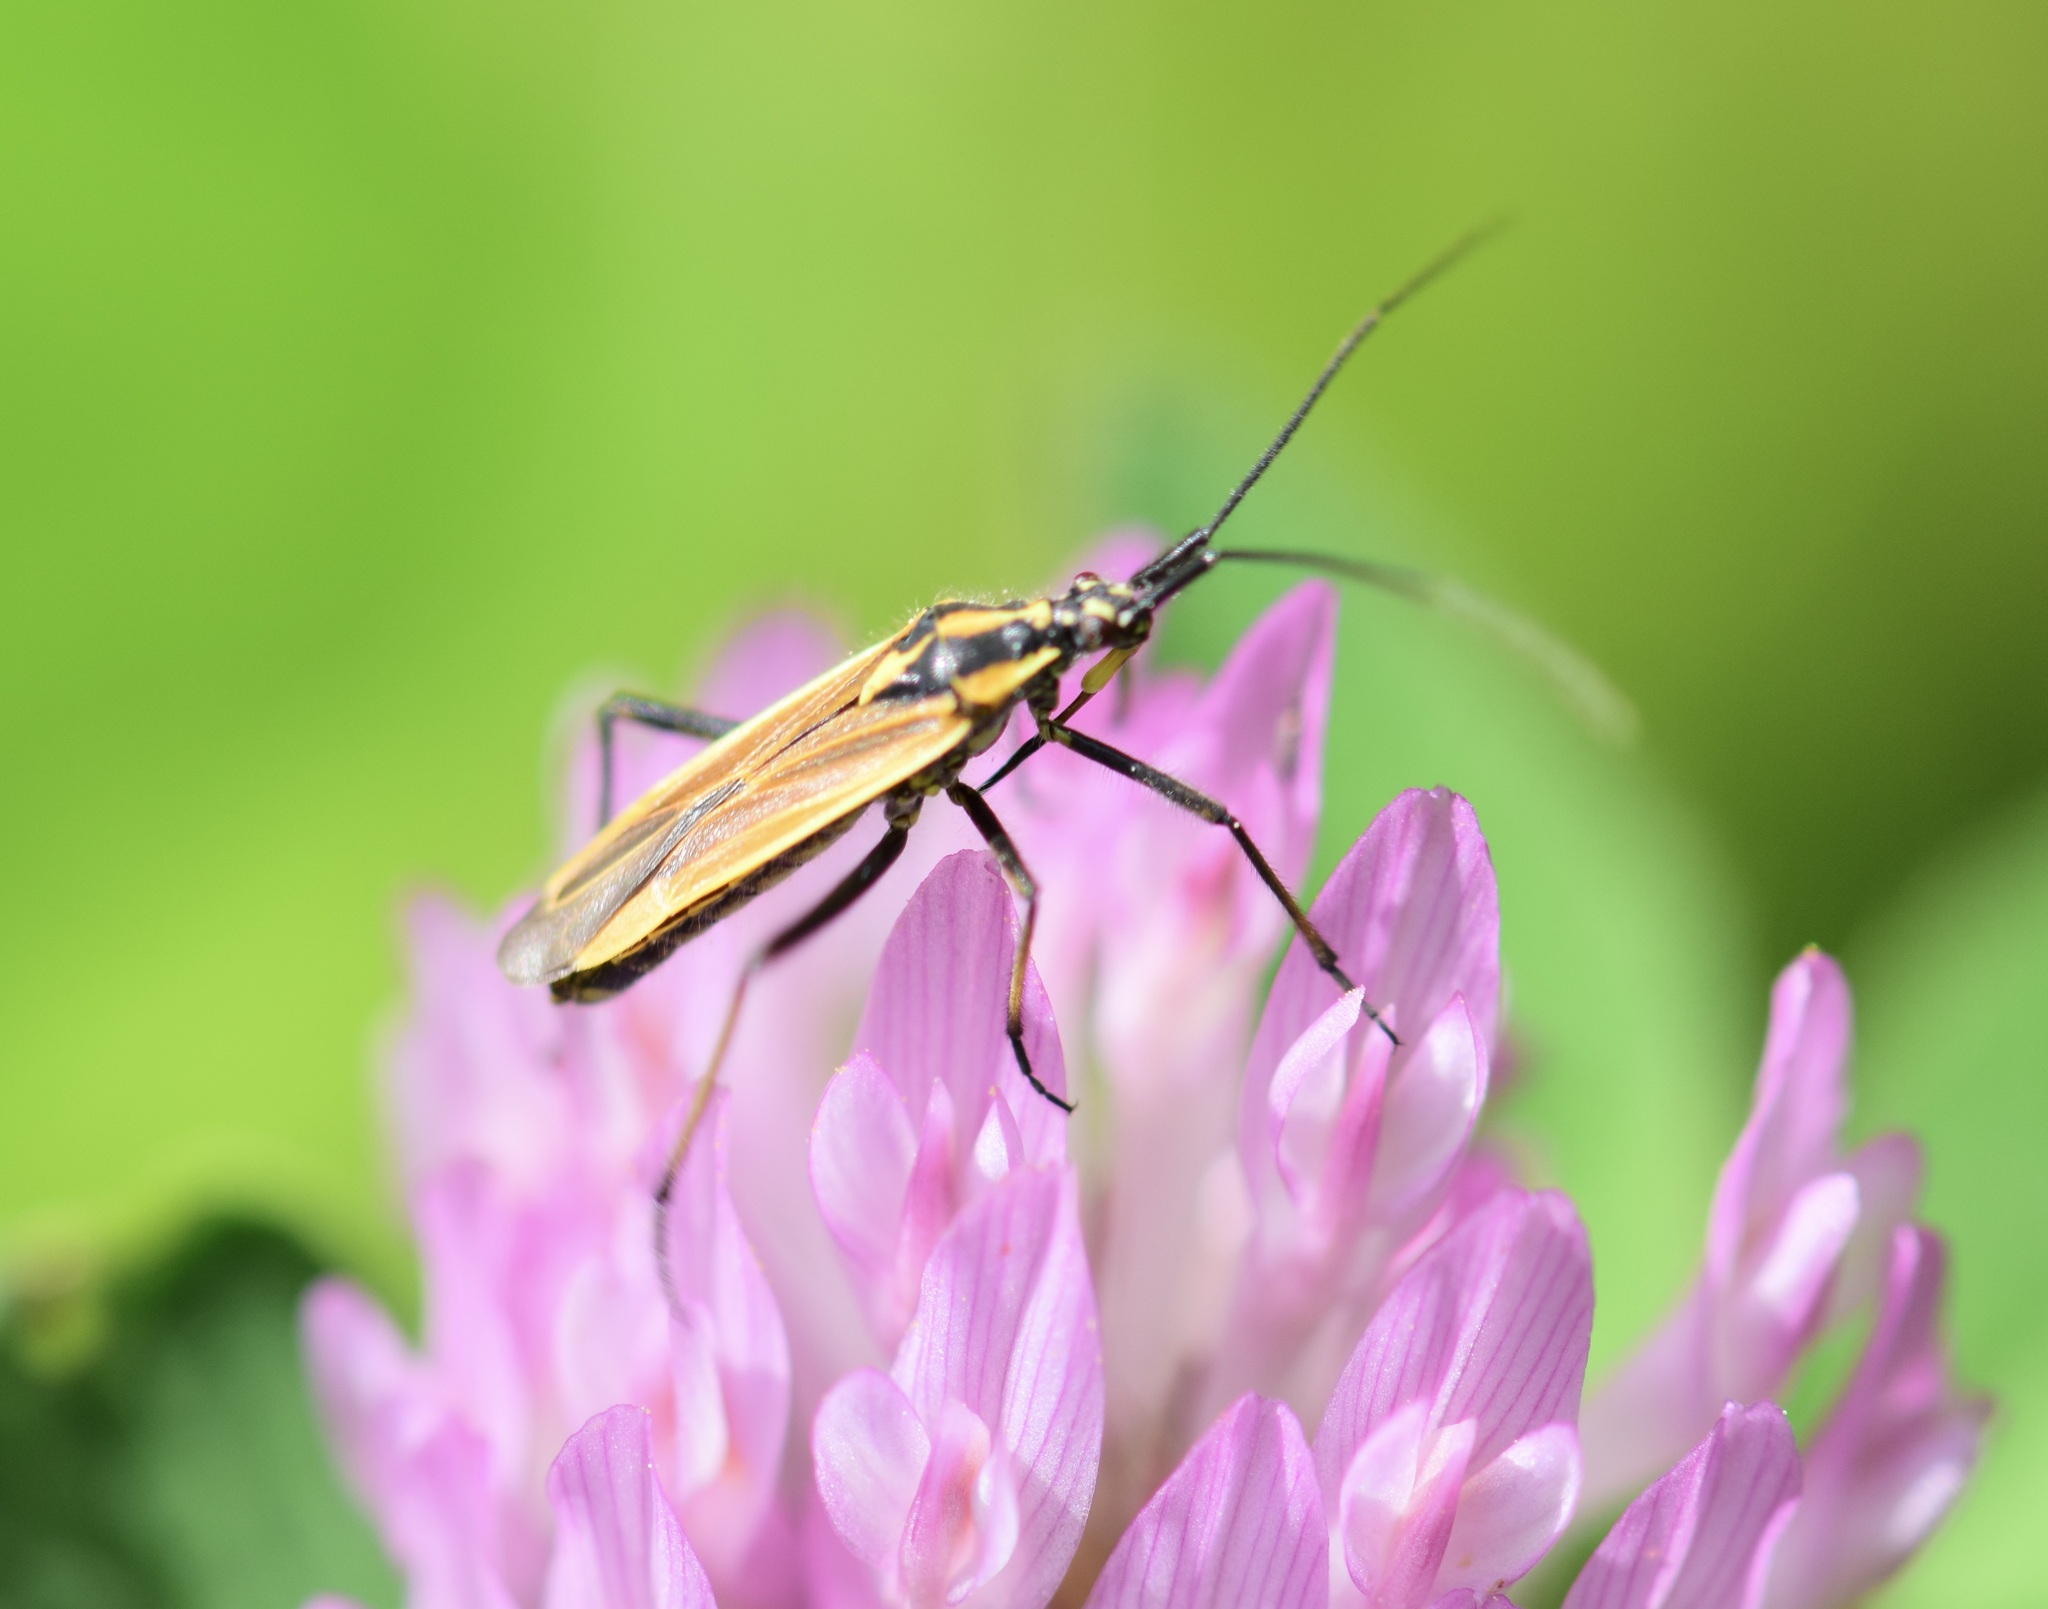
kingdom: Animalia
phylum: Arthropoda
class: Insecta
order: Hemiptera
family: Miridae
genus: Leptopterna
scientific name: Leptopterna dolabrata
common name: Meadow plant bug
